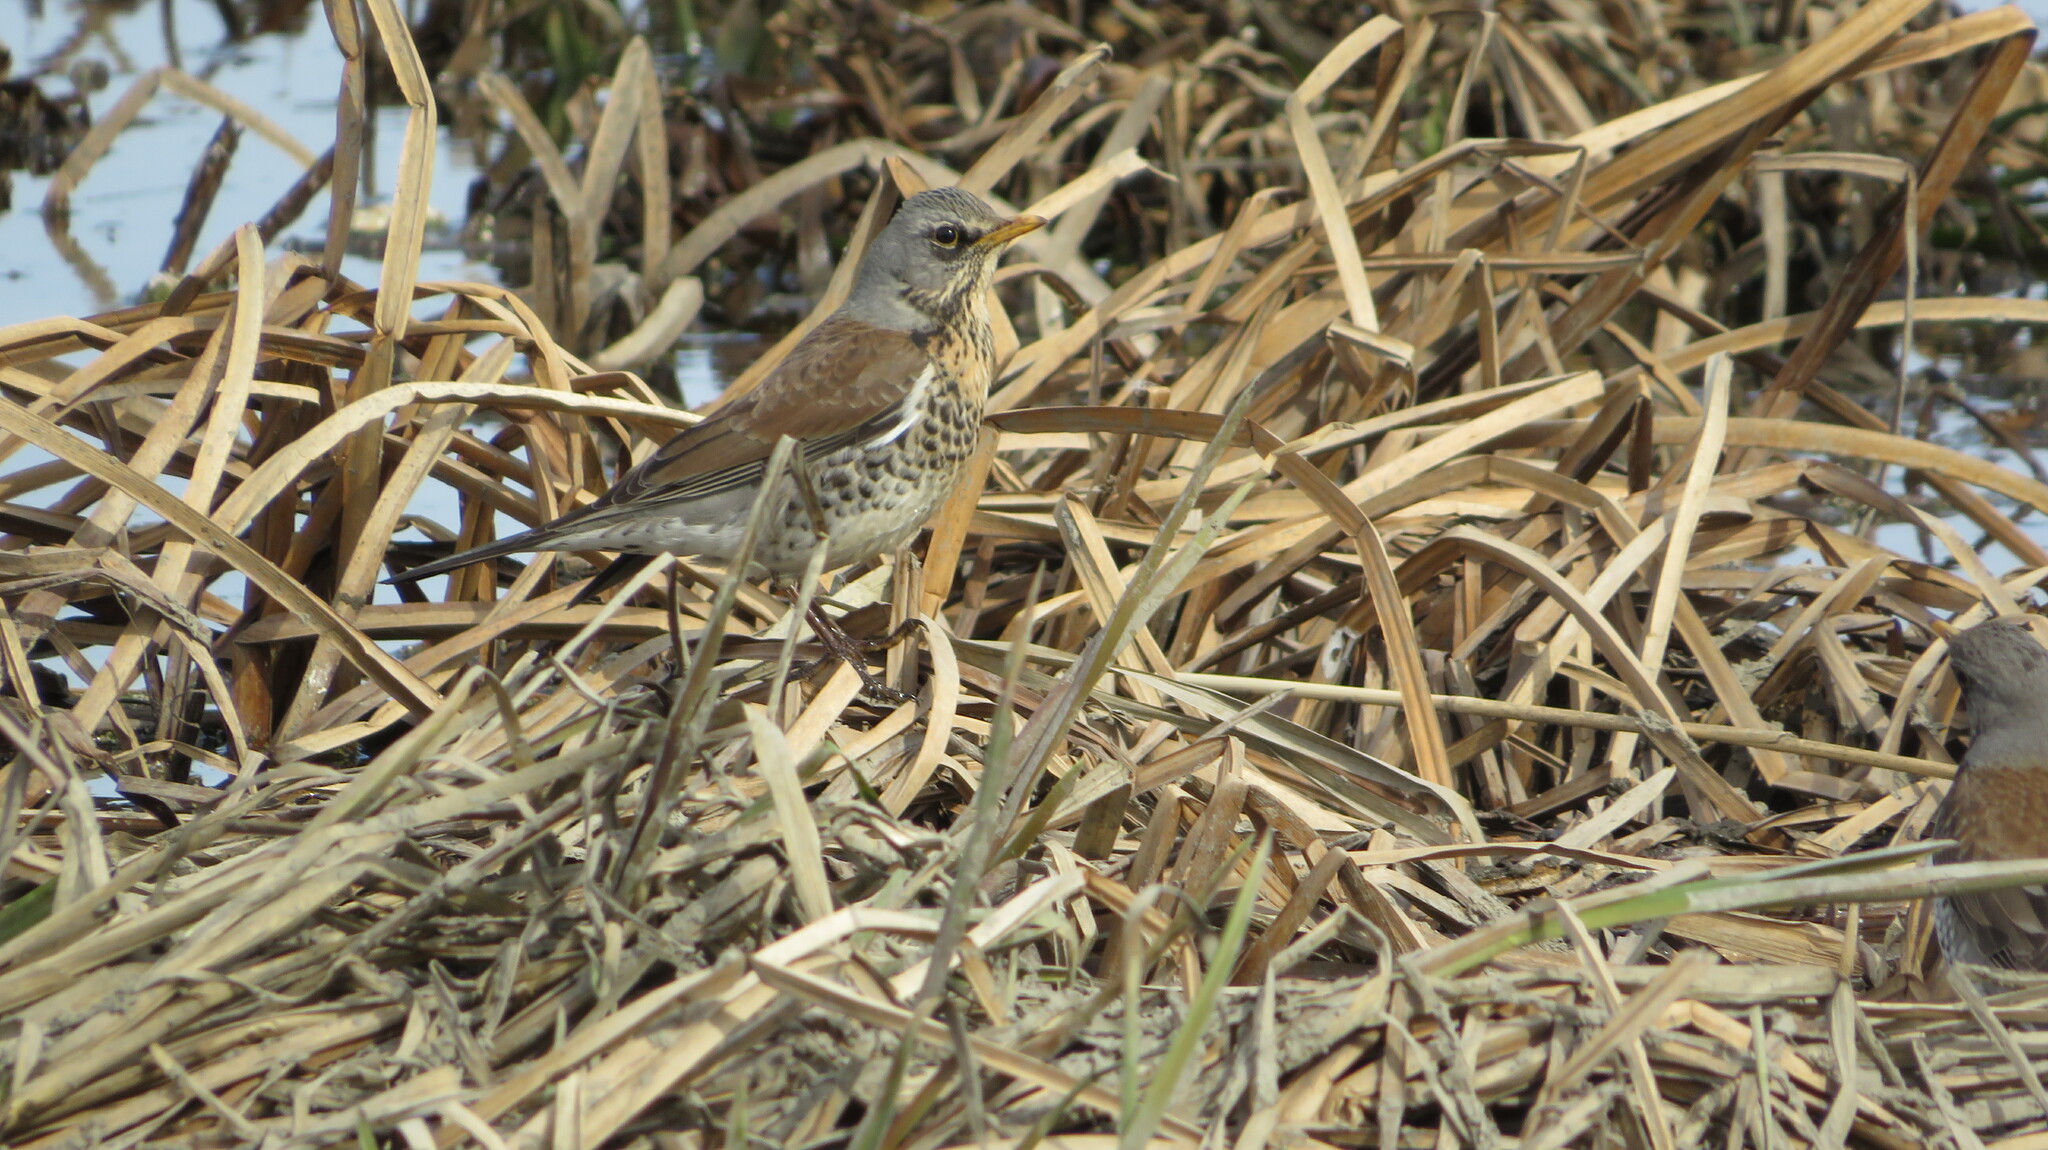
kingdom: Animalia
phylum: Chordata
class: Aves
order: Passeriformes
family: Turdidae
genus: Turdus
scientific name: Turdus pilaris
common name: Fieldfare
